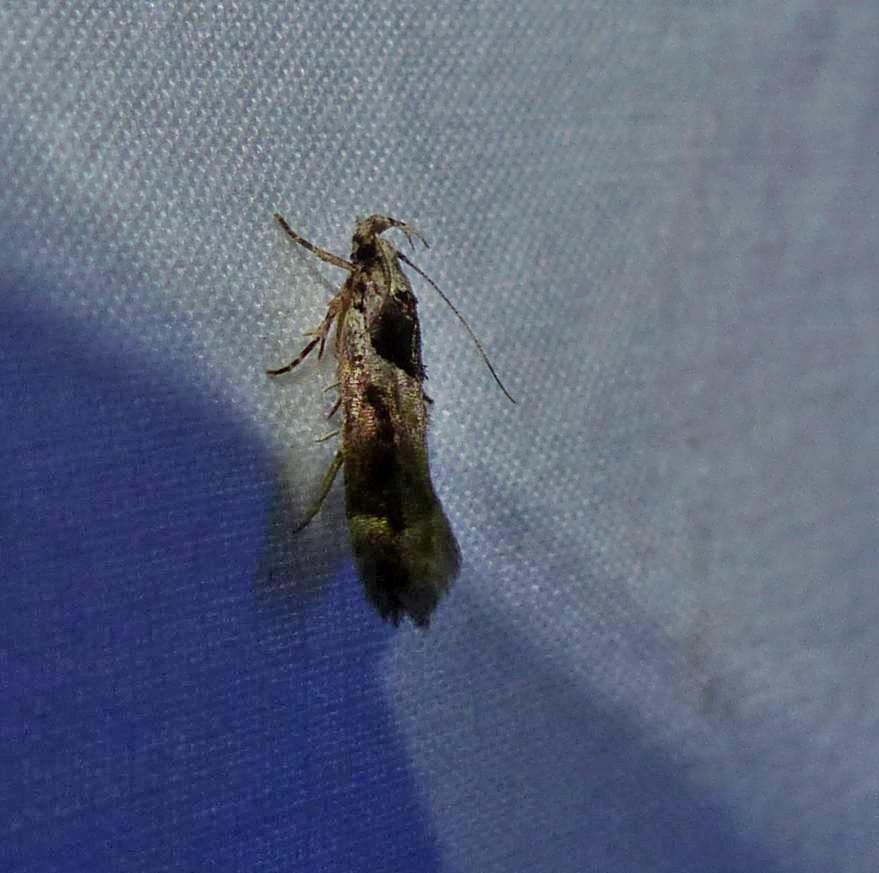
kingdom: Animalia
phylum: Arthropoda
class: Insecta
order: Lepidoptera
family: Gelechiidae
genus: Pseudochelaria
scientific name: Pseudochelaria walsinghami
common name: Walsingham's moth
